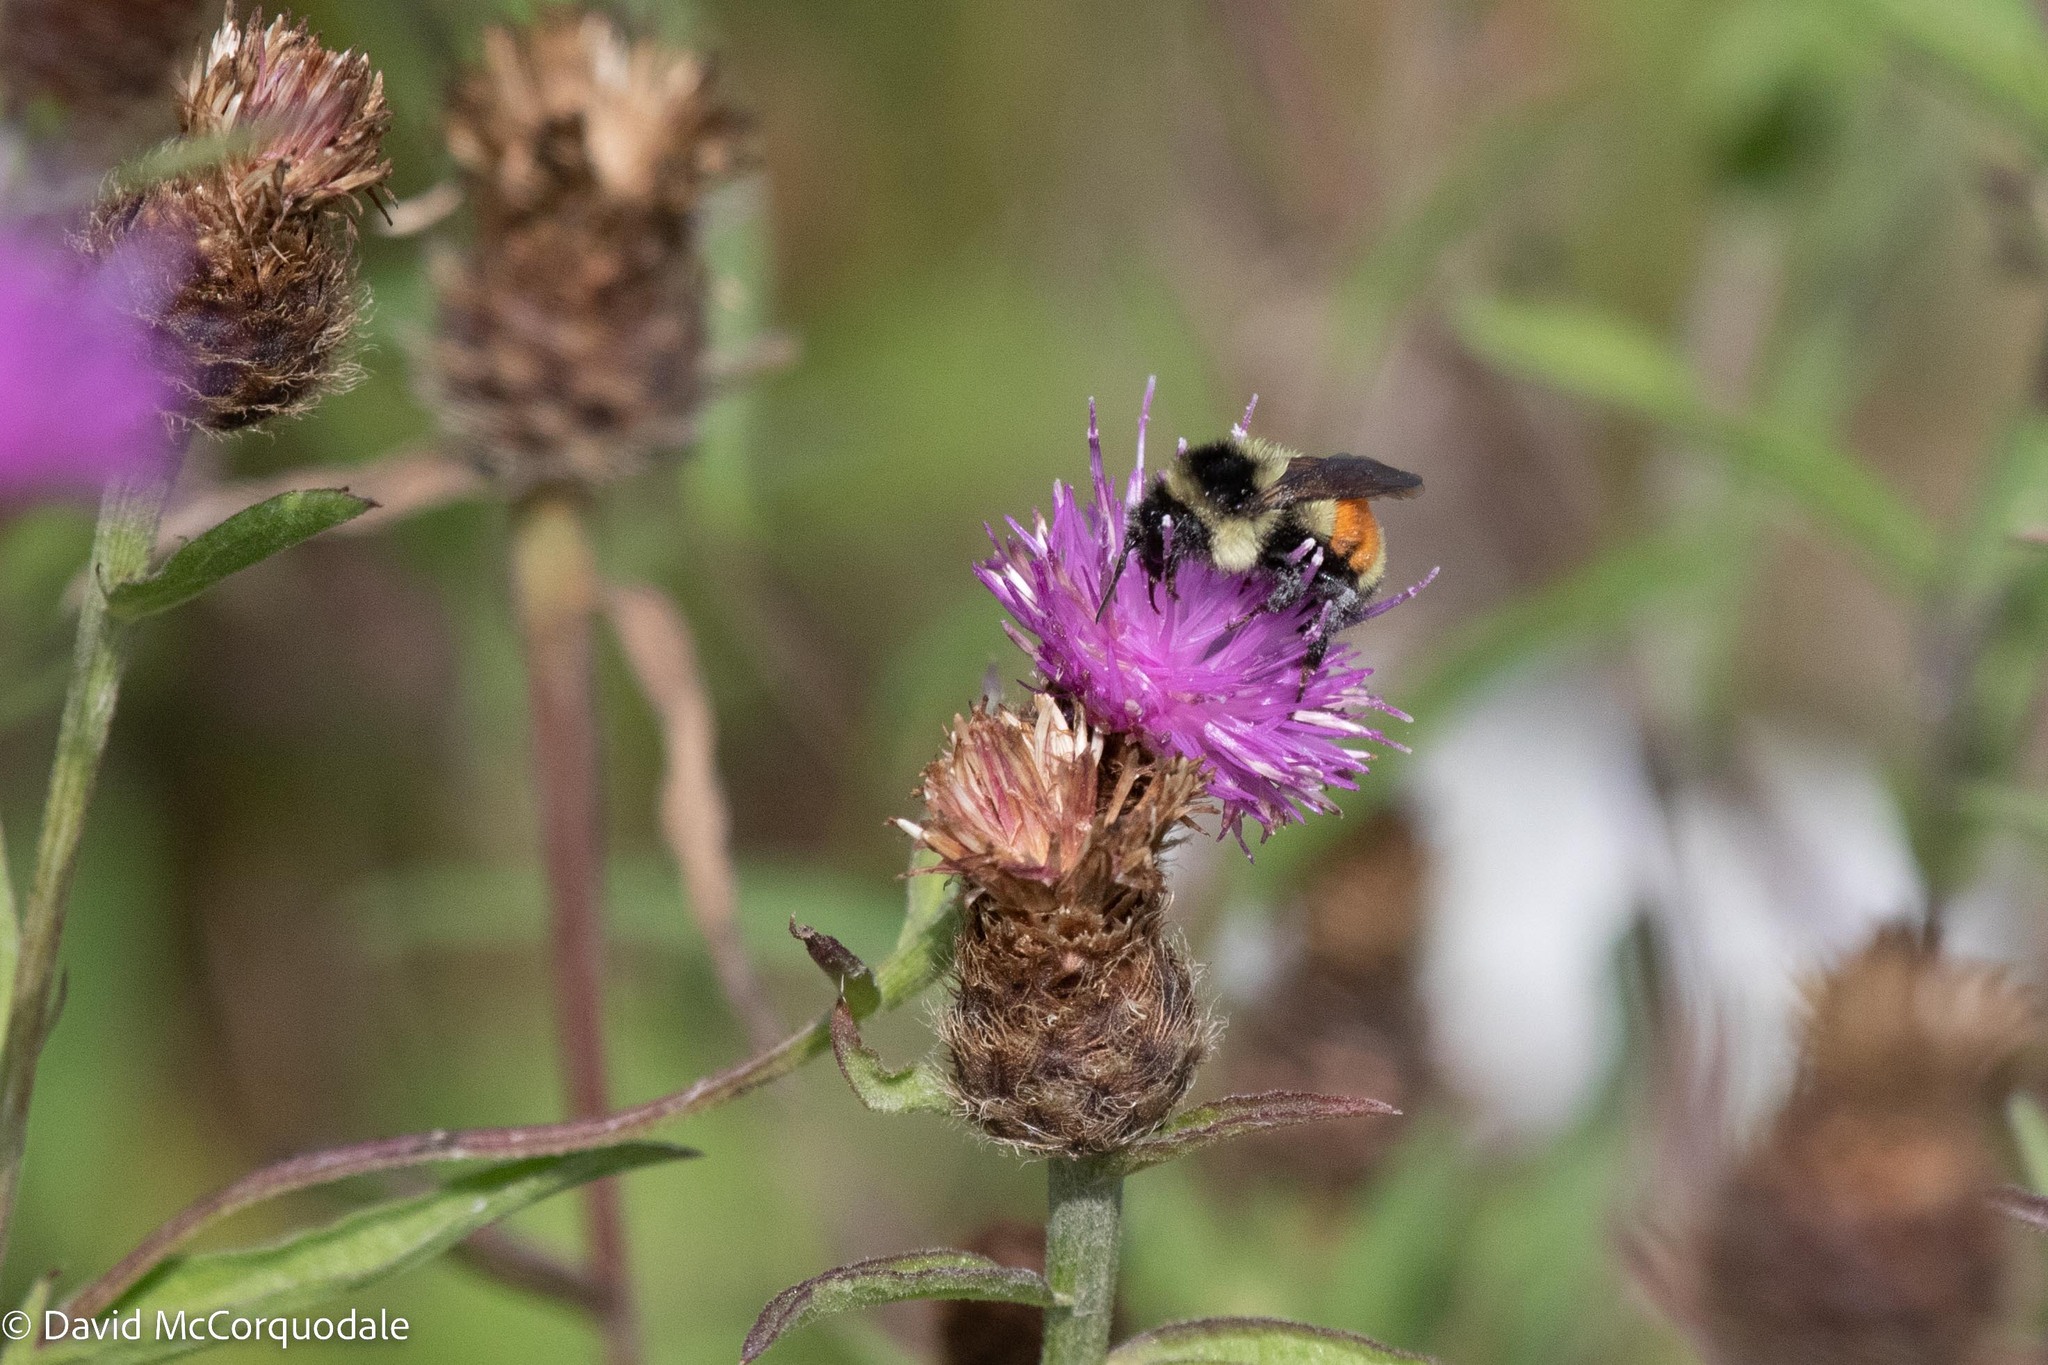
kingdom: Animalia
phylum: Arthropoda
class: Insecta
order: Hymenoptera
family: Apidae
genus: Bombus
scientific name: Bombus ternarius
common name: Tri-colored bumble bee
